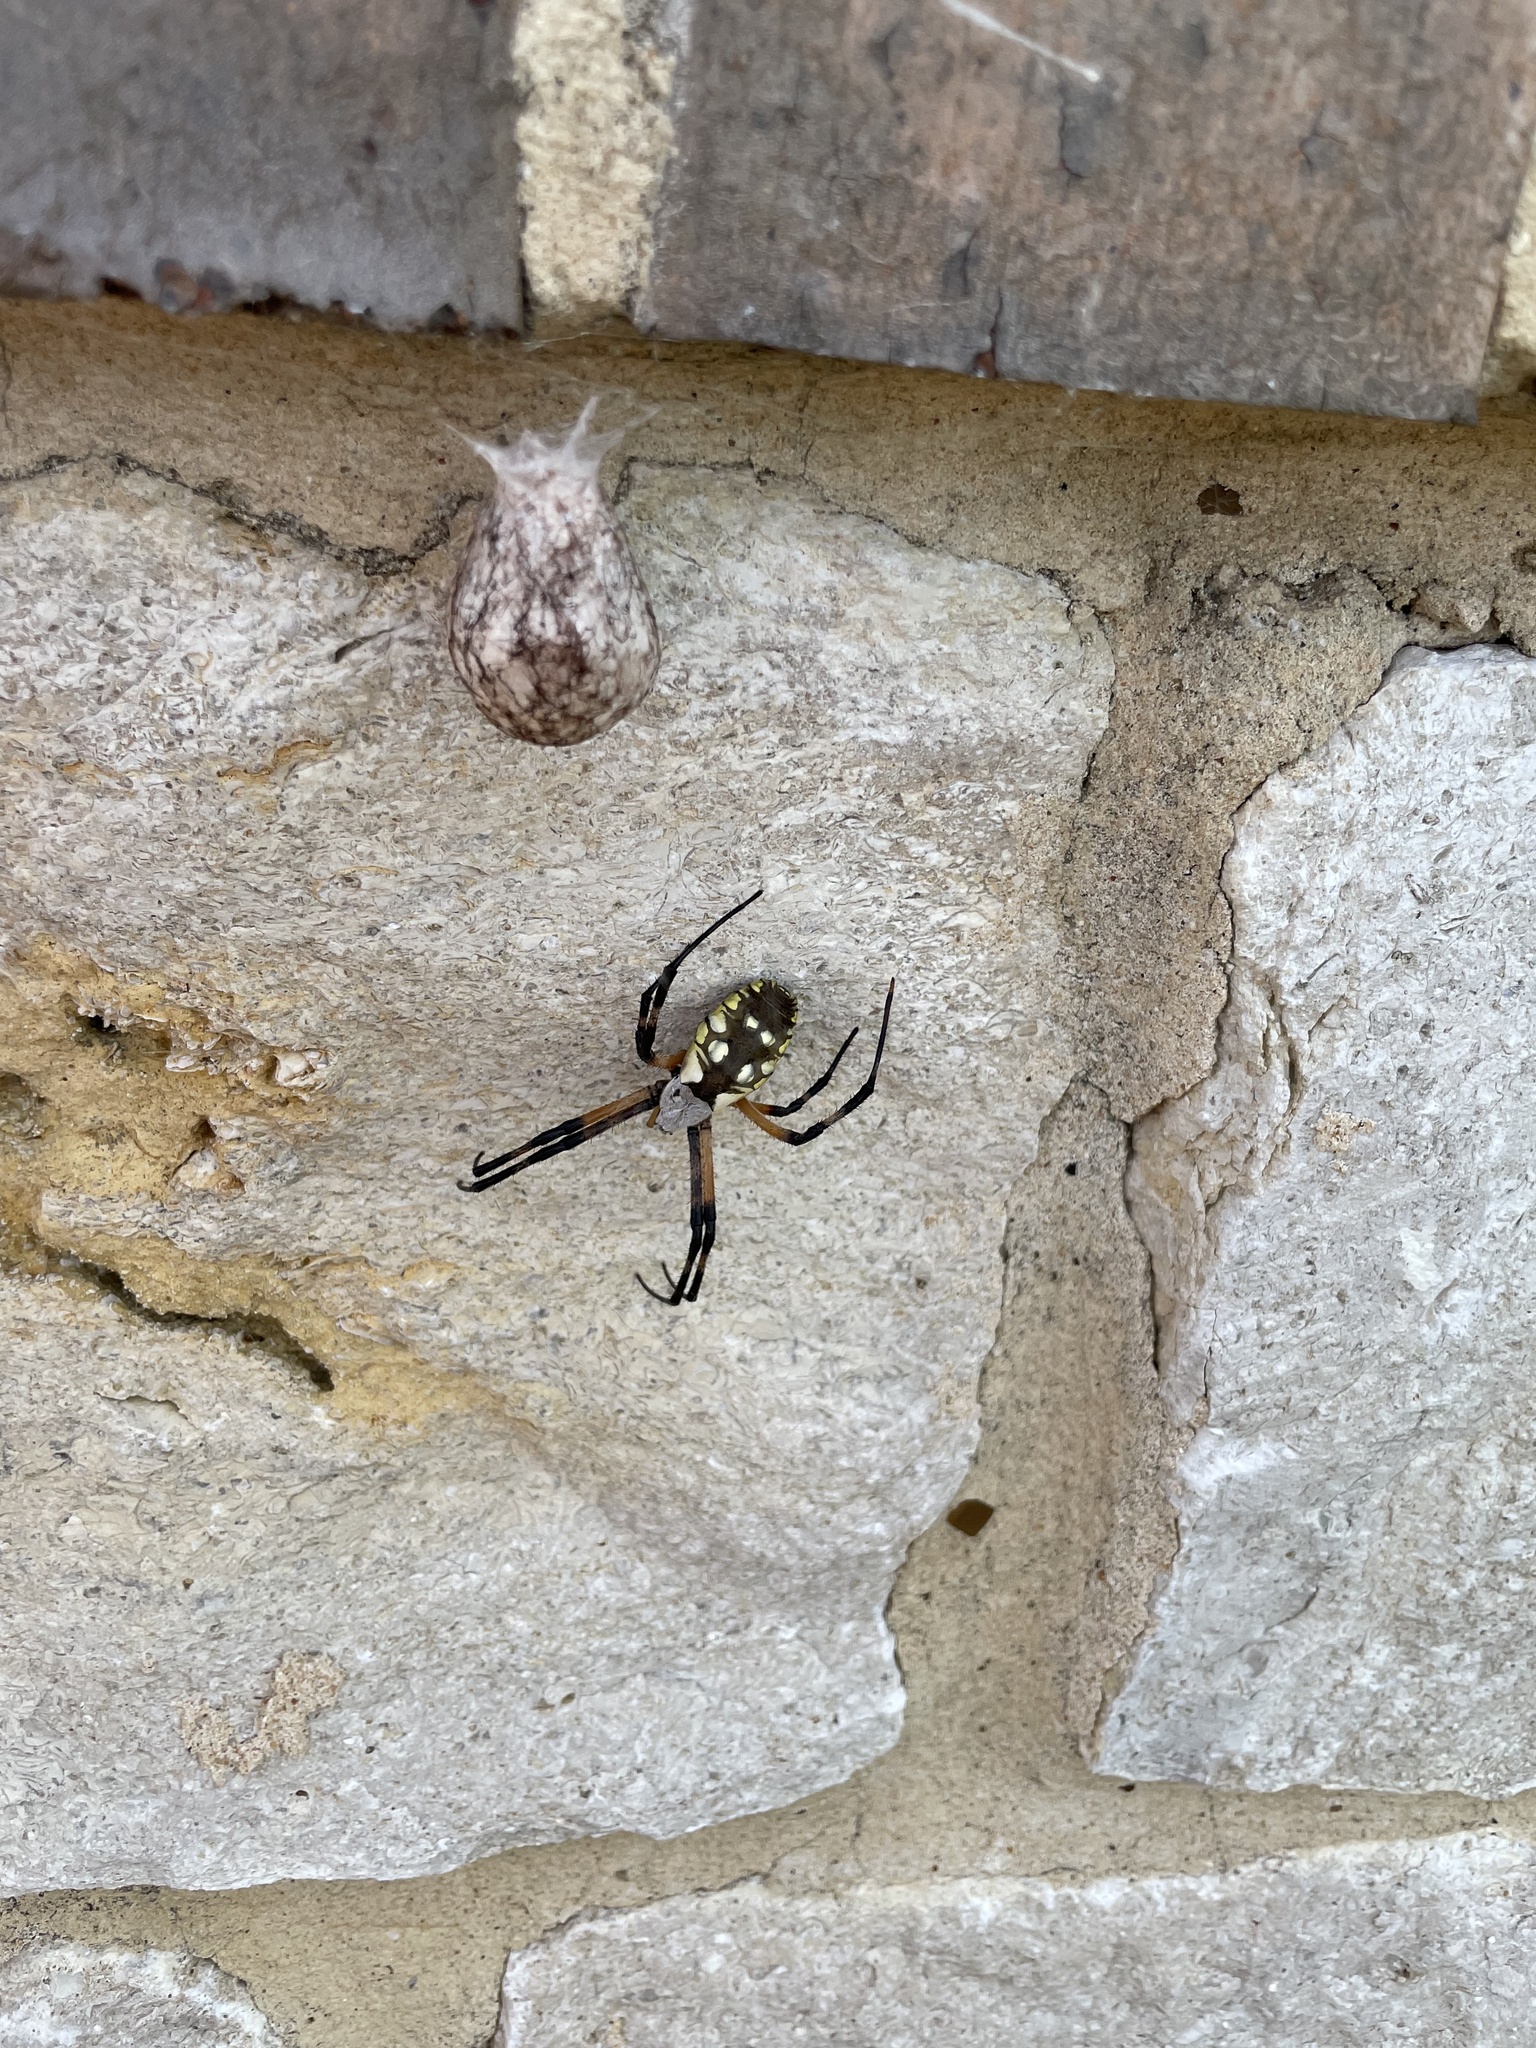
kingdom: Animalia
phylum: Arthropoda
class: Arachnida
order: Araneae
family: Araneidae
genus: Argiope
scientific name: Argiope aurantia
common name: Orb weavers
